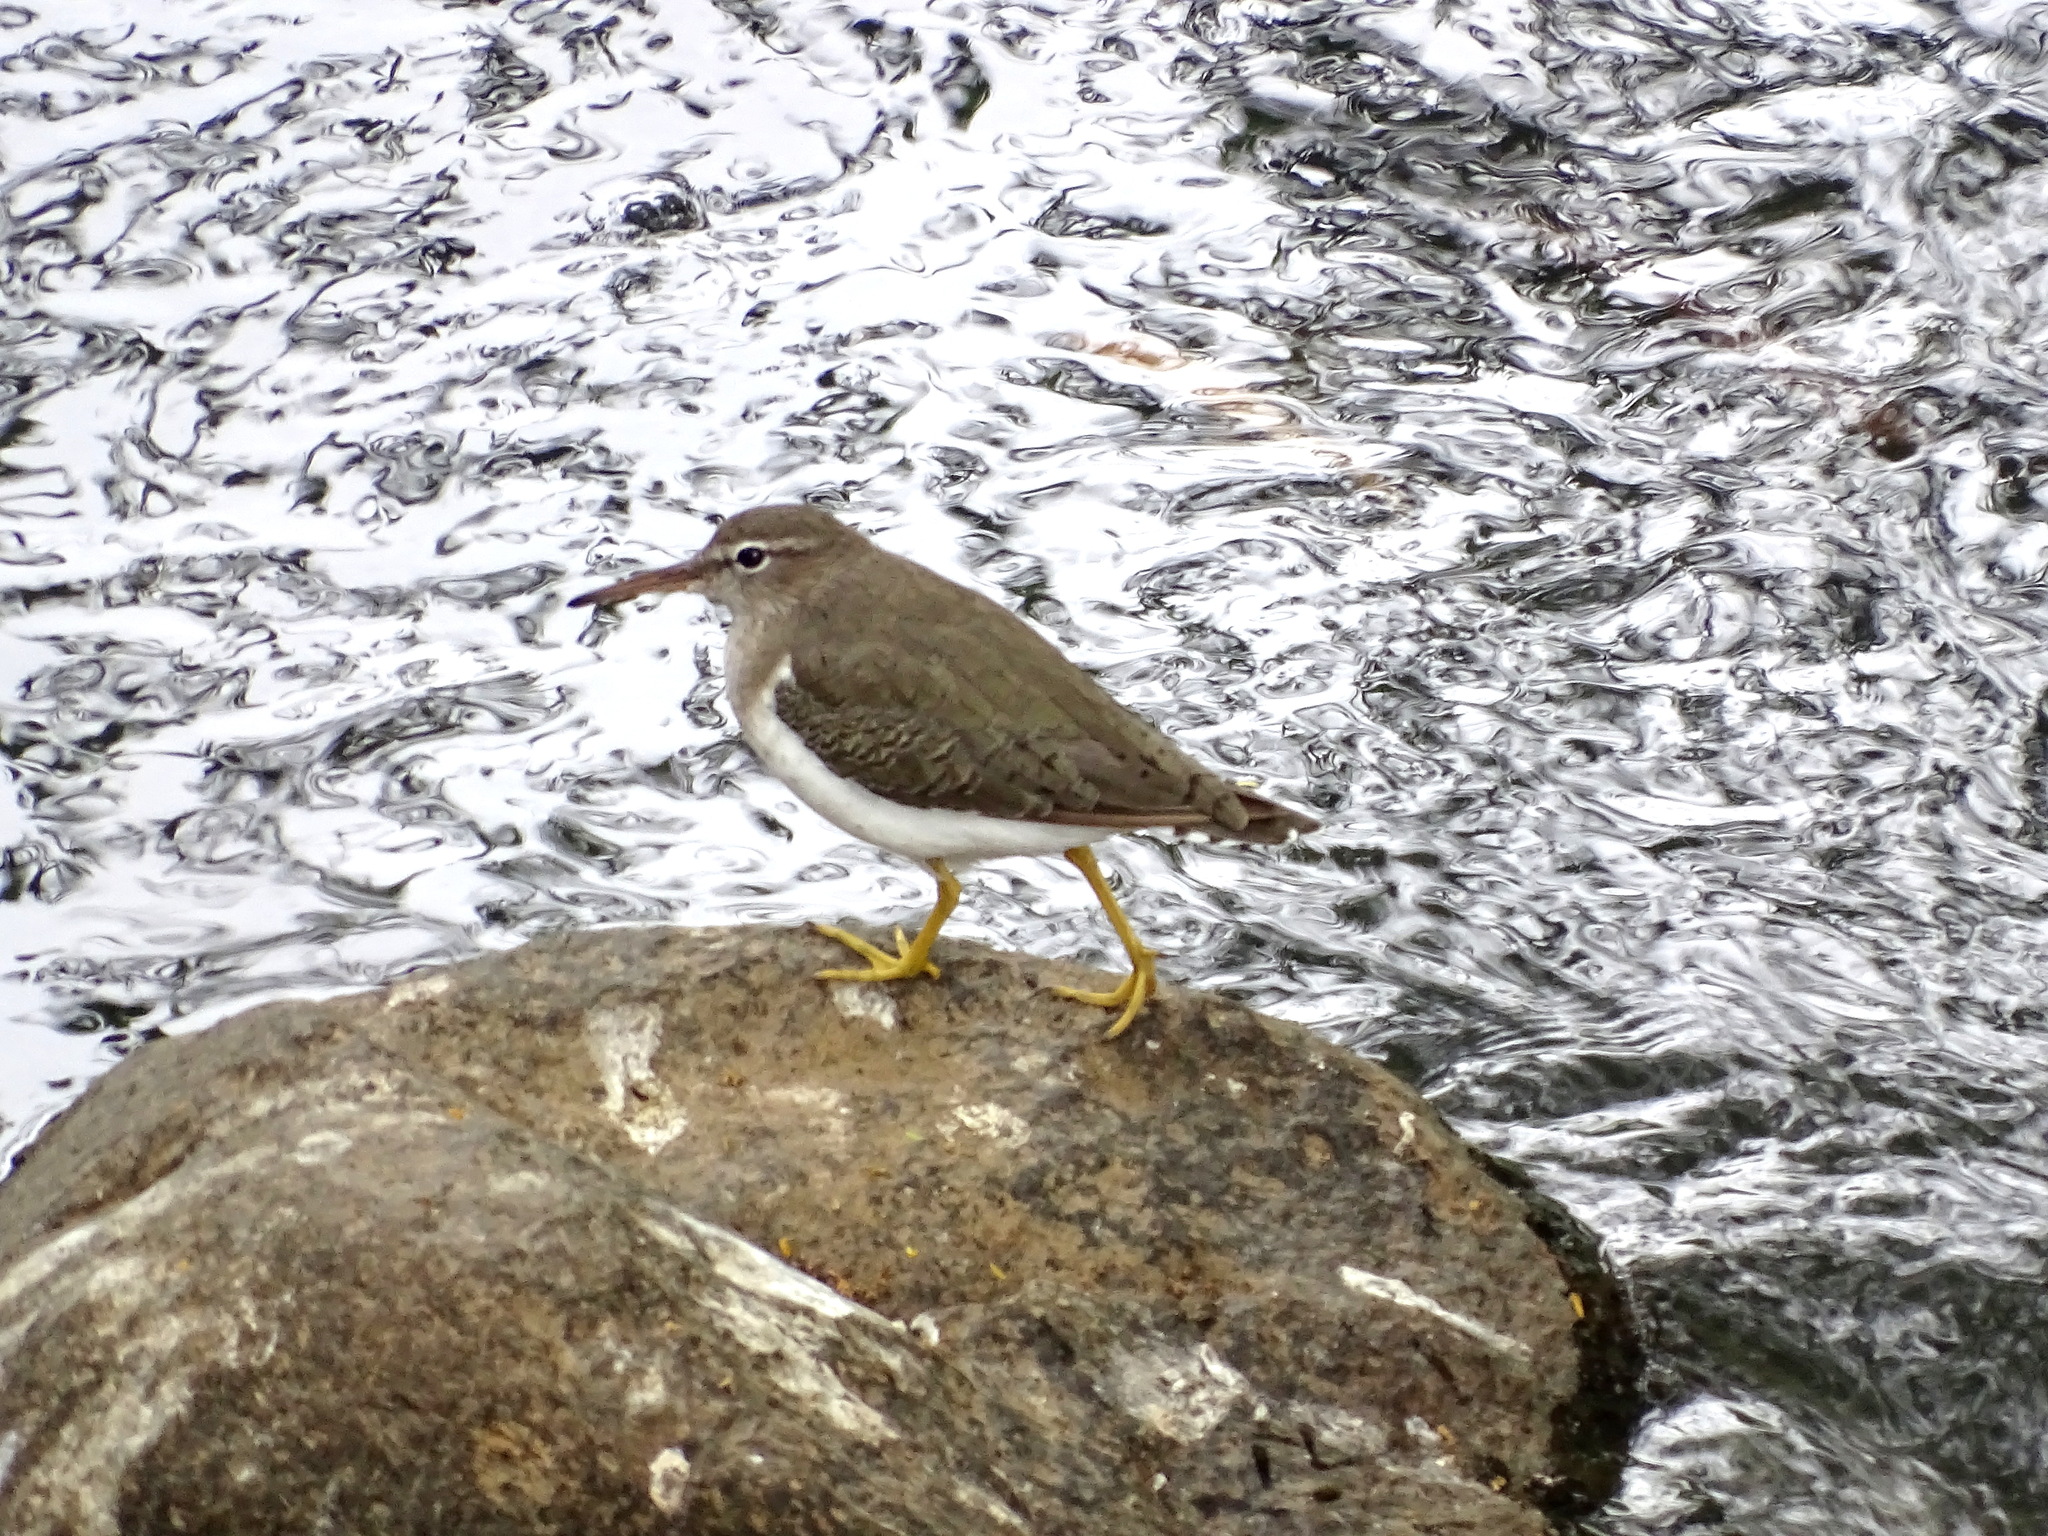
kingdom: Animalia
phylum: Chordata
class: Aves
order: Charadriiformes
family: Scolopacidae
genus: Actitis
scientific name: Actitis macularius
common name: Spotted sandpiper
